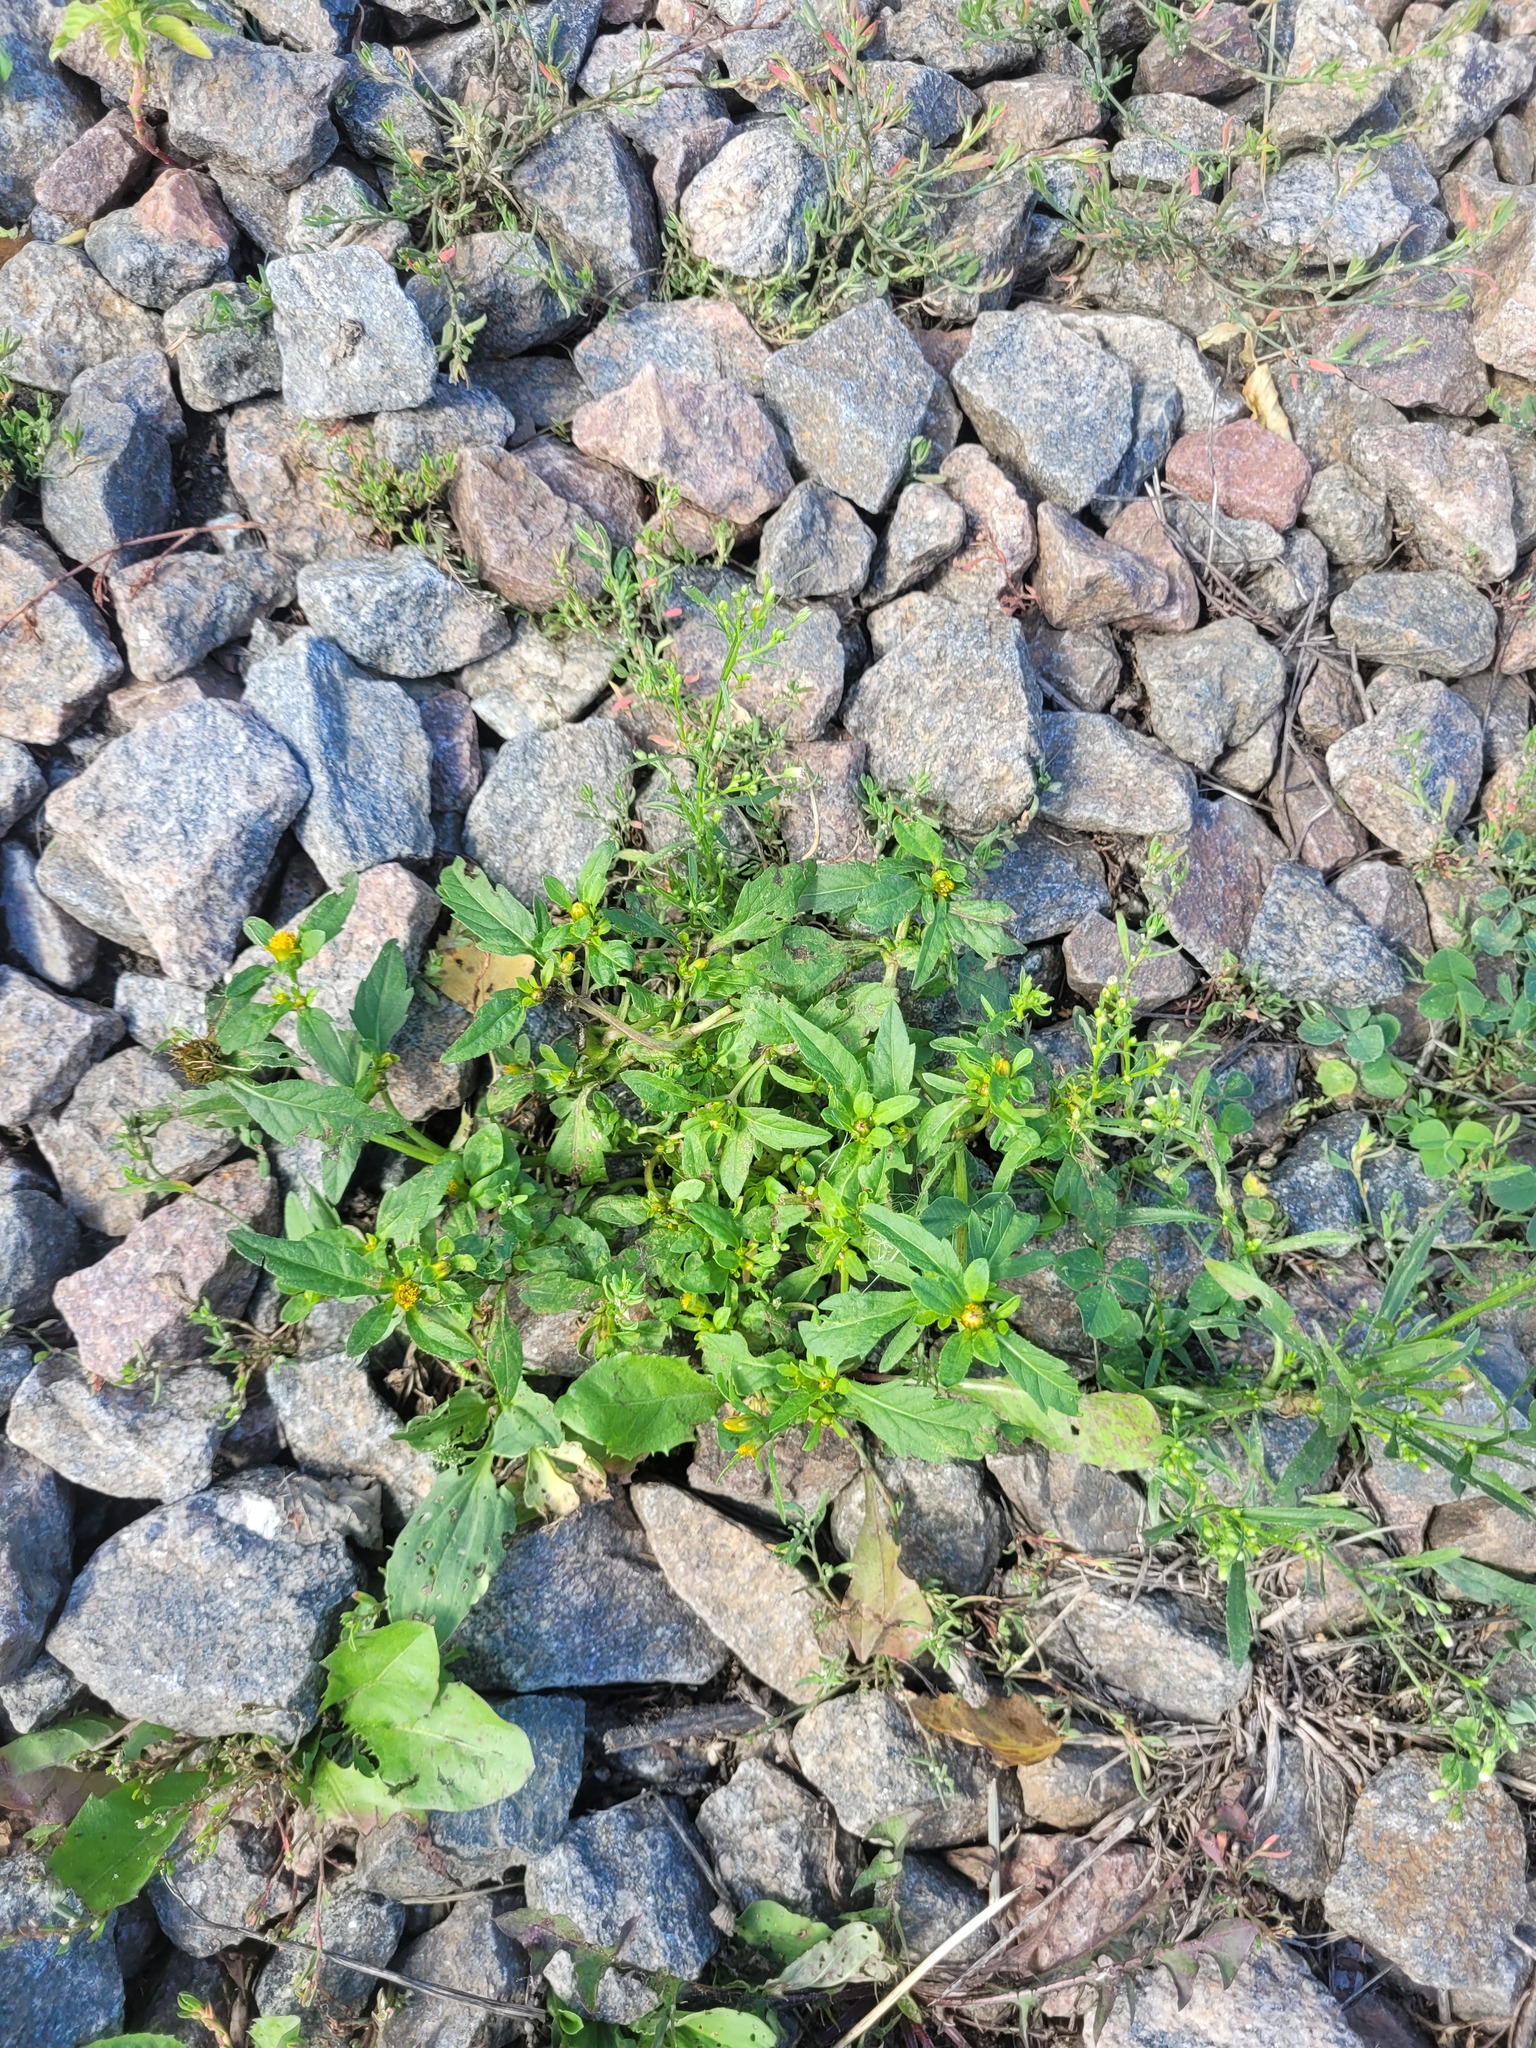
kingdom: Plantae
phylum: Tracheophyta
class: Magnoliopsida
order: Asterales
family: Asteraceae
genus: Bidens
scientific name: Bidens tripartita
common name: Trifid bur-marigold
